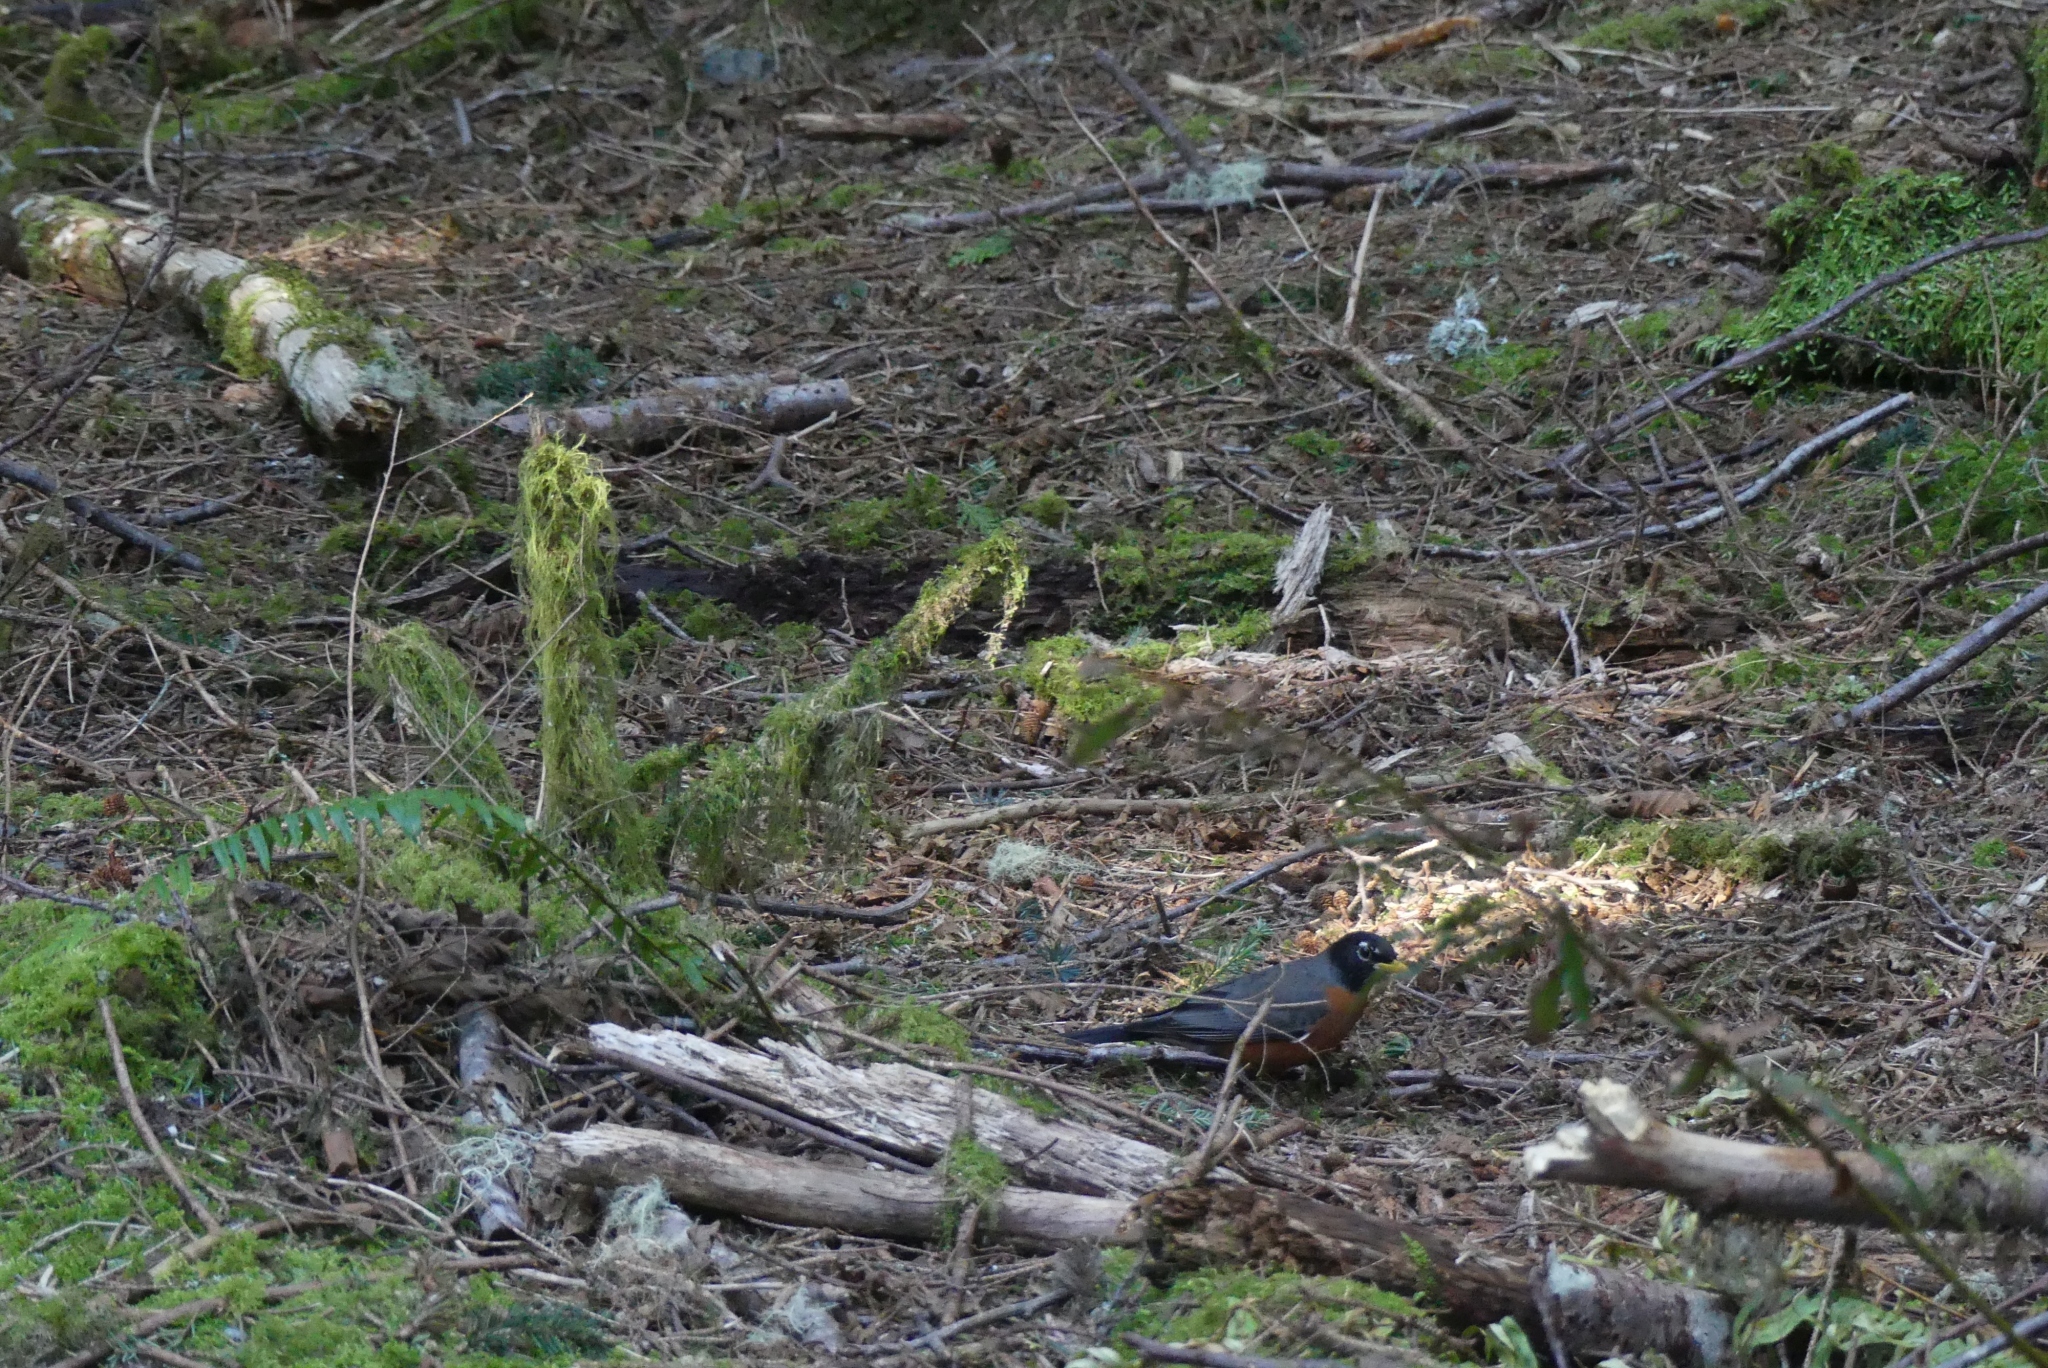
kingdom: Animalia
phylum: Chordata
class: Aves
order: Passeriformes
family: Turdidae
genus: Turdus
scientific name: Turdus migratorius
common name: American robin
